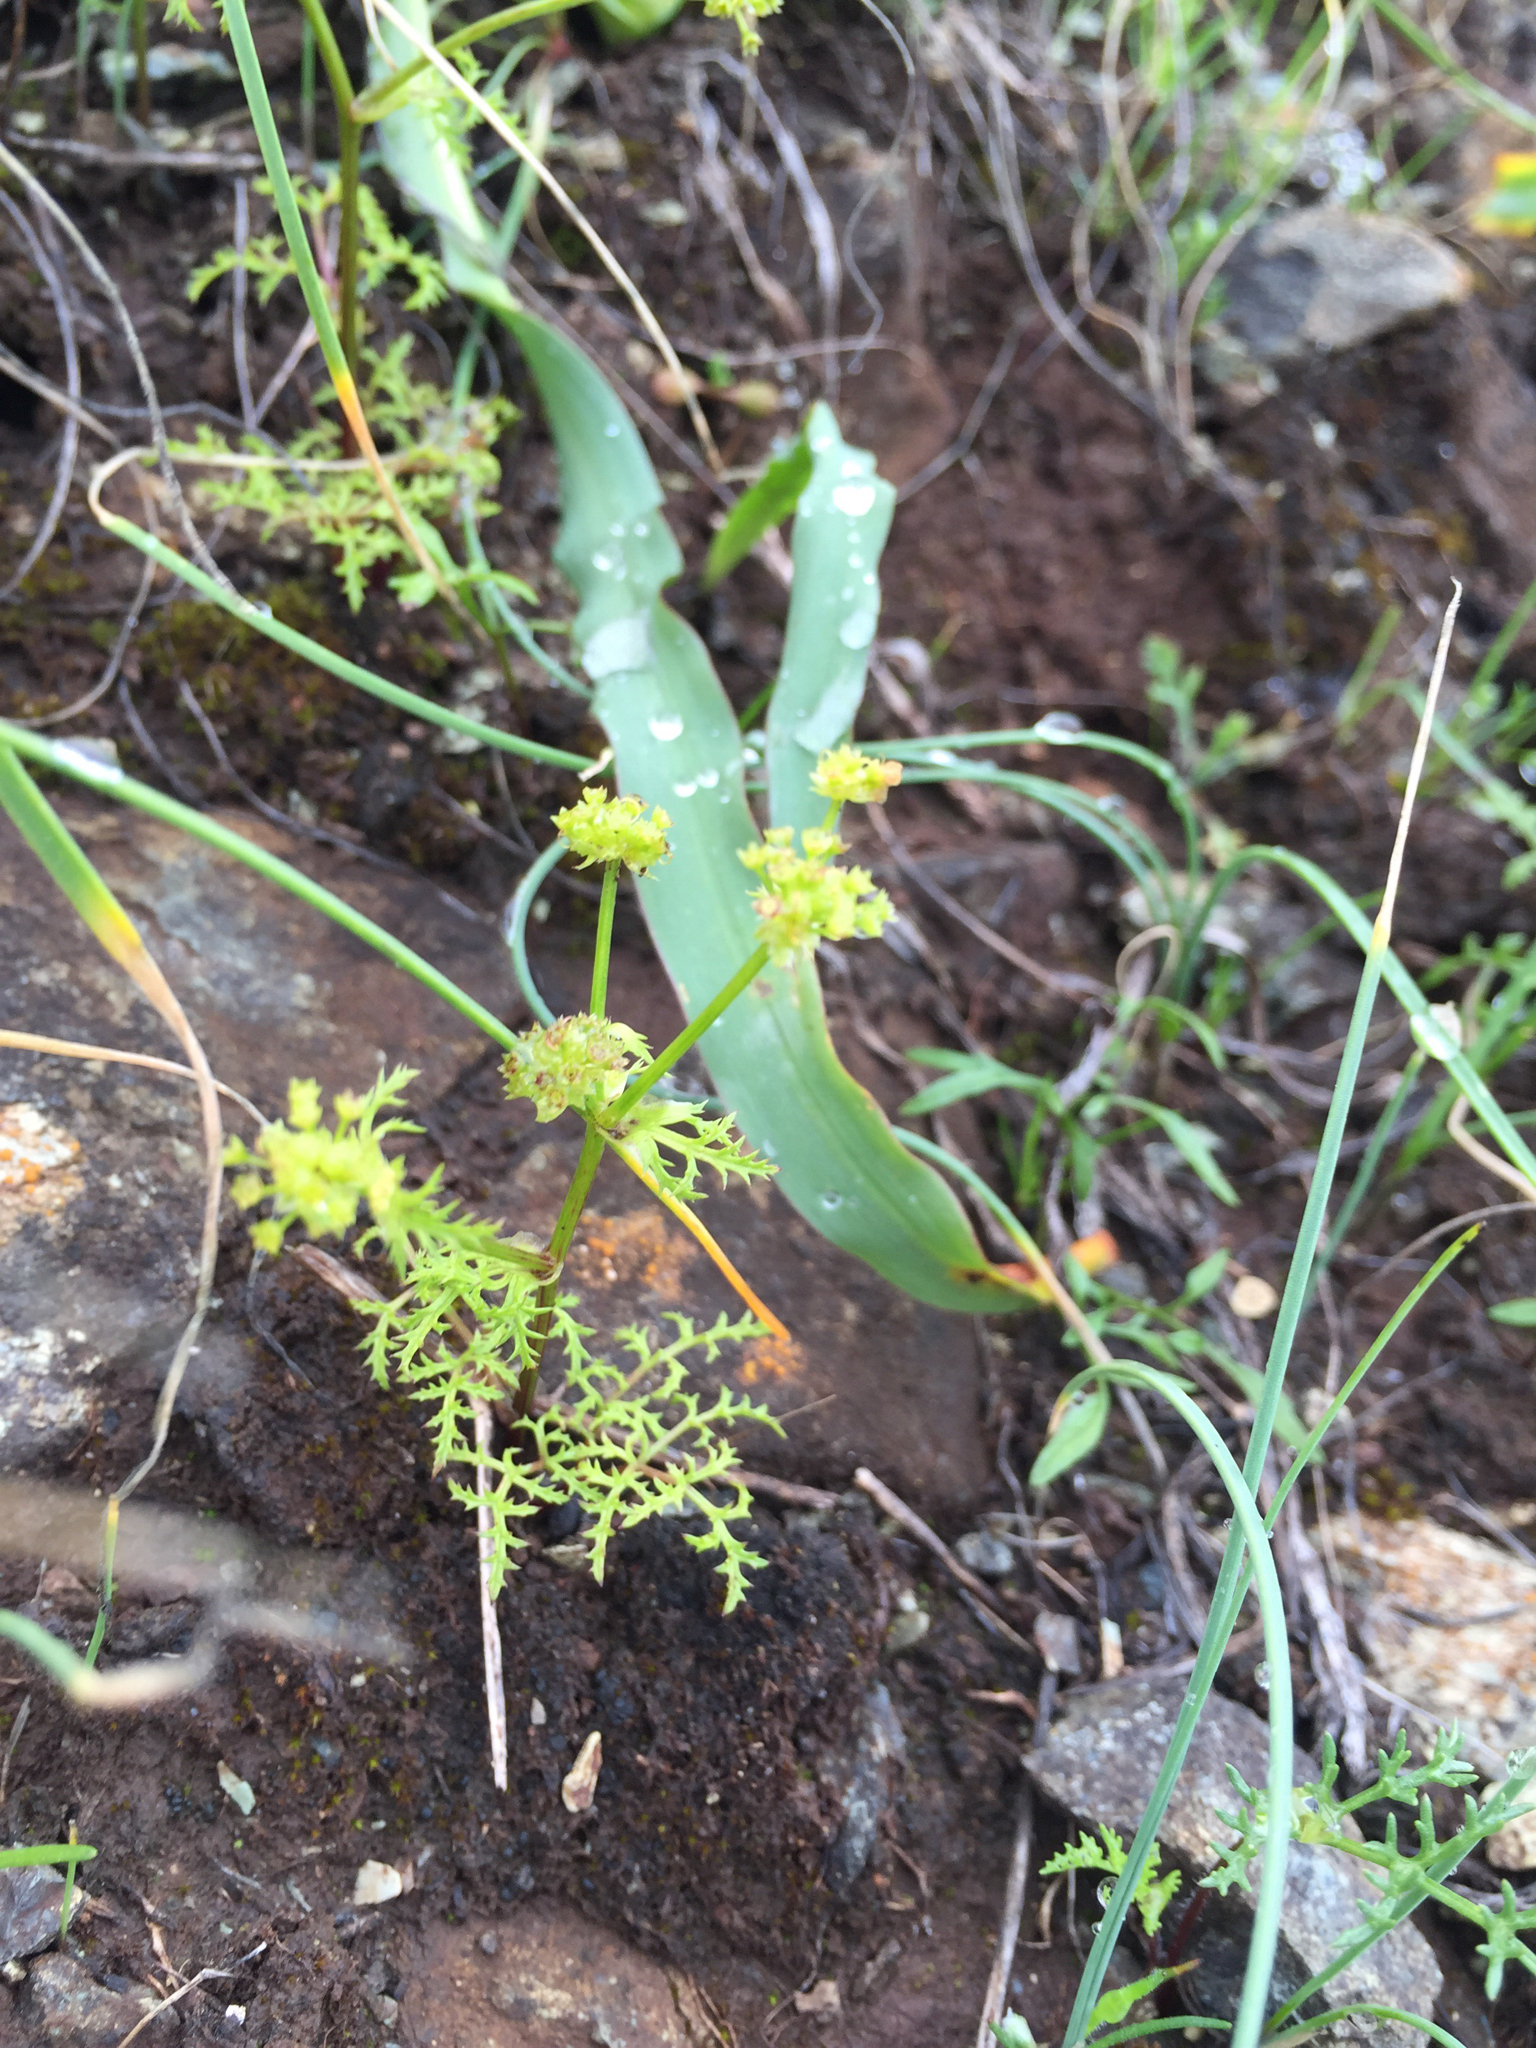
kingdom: Plantae
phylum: Tracheophyta
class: Magnoliopsida
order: Apiales
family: Apiaceae
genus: Sanicula
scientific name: Sanicula tuberosa
